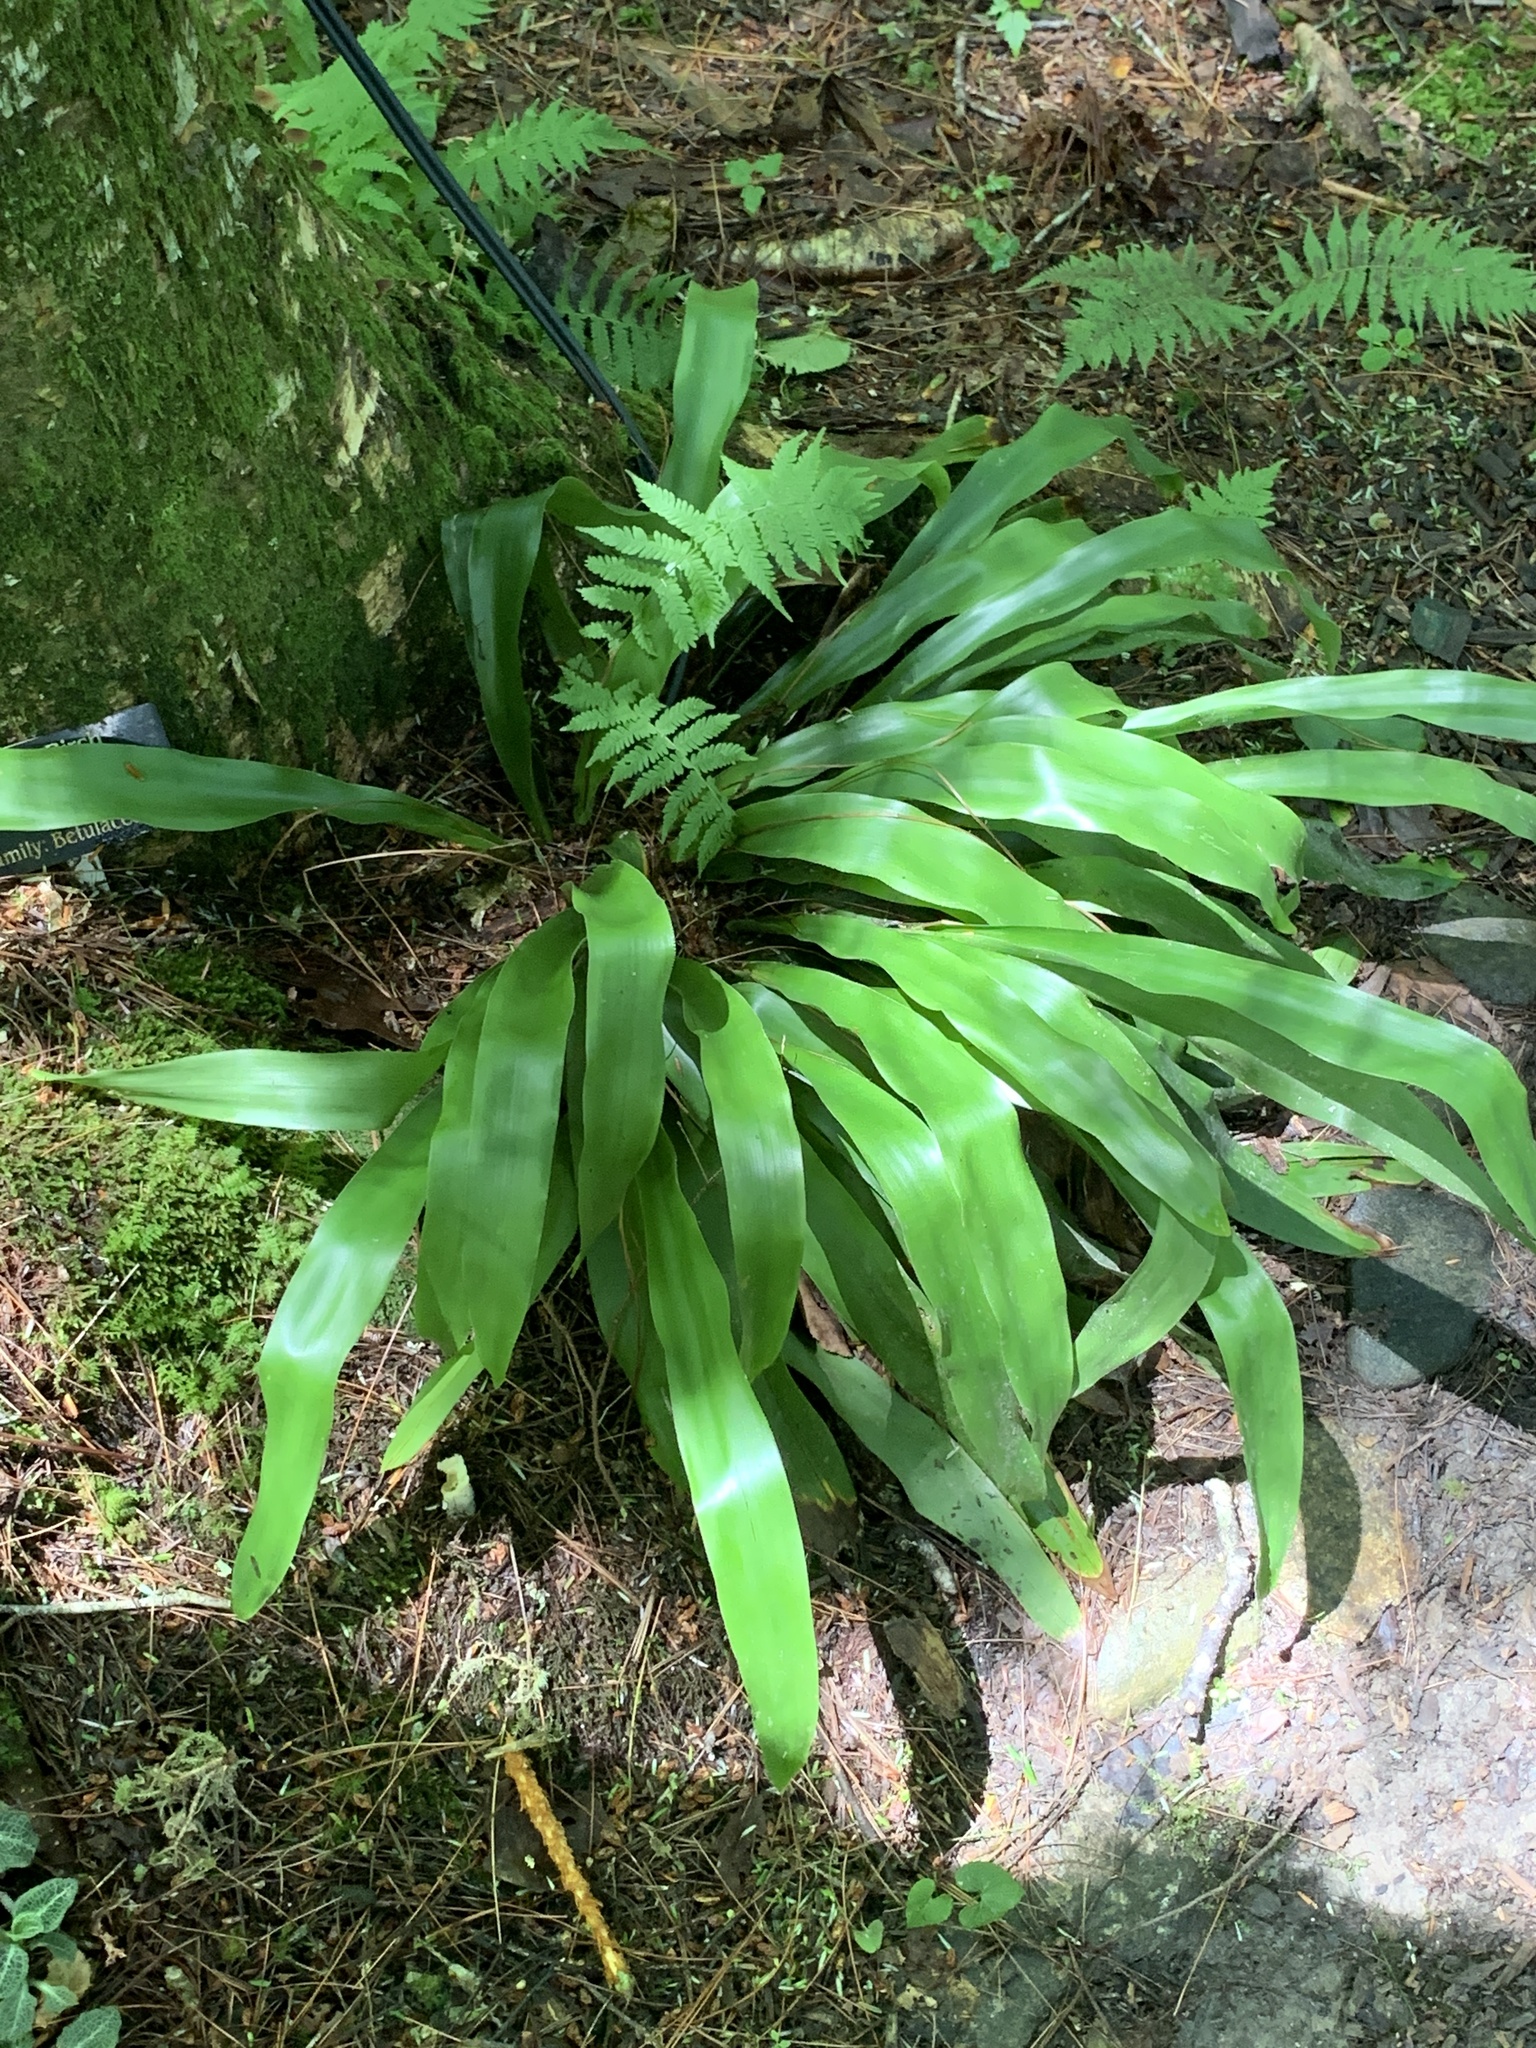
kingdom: Plantae
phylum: Tracheophyta
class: Liliopsida
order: Poales
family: Cyperaceae
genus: Carex
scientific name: Carex fraseriana
